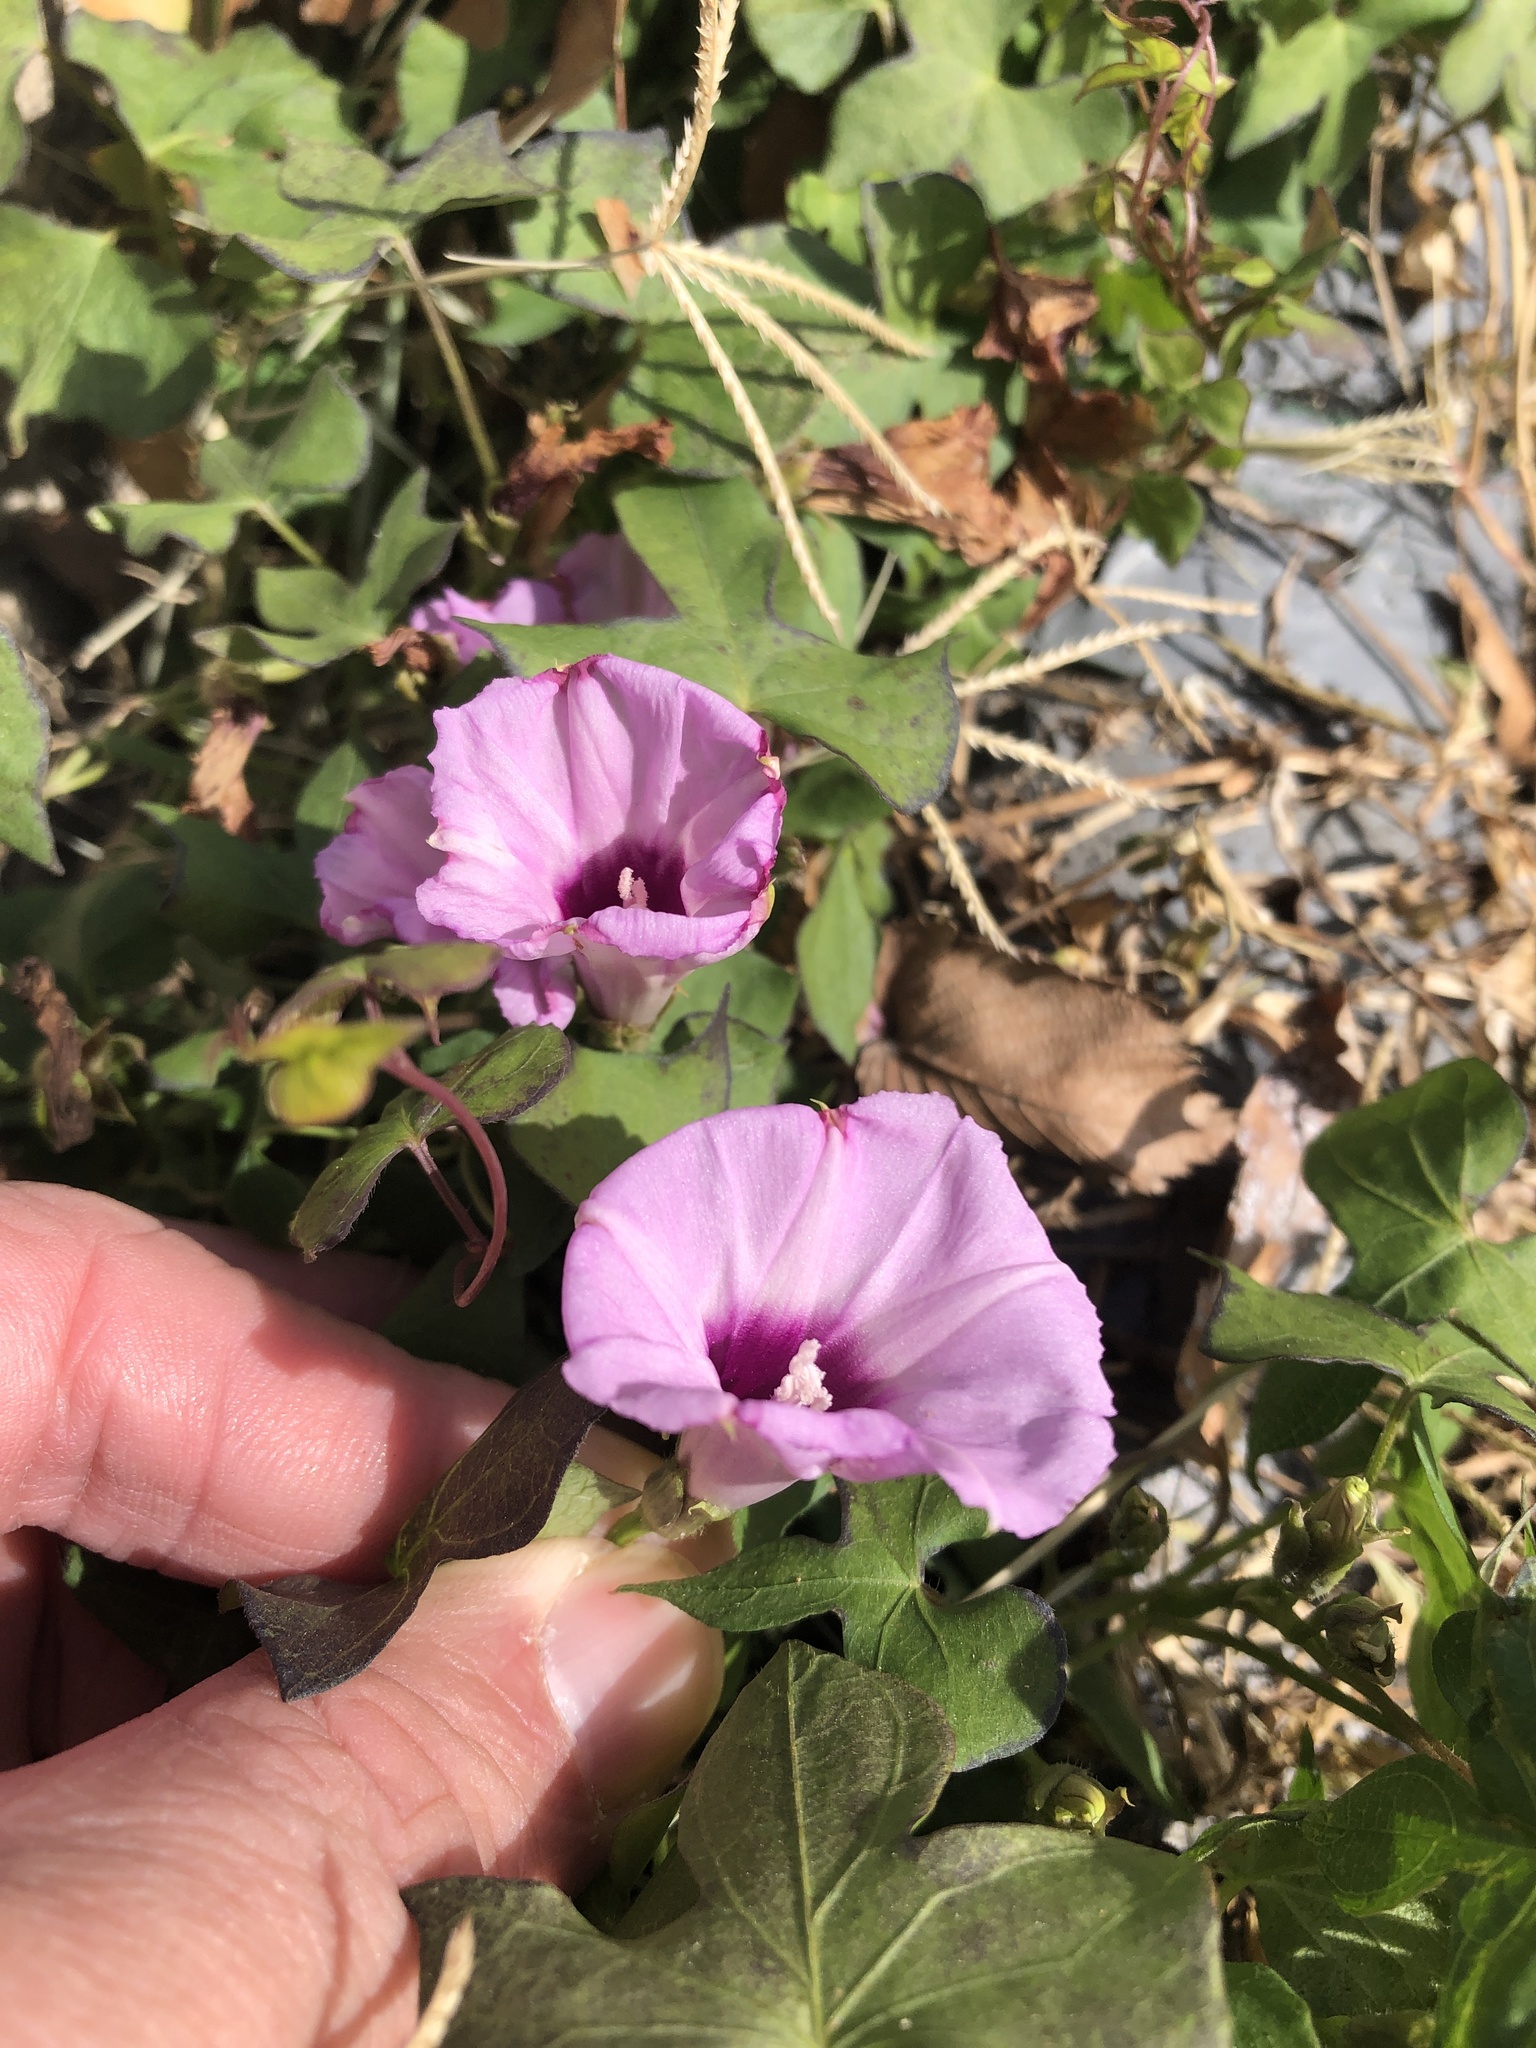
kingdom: Plantae
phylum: Tracheophyta
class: Magnoliopsida
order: Solanales
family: Convolvulaceae
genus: Ipomoea
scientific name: Ipomoea cordatotriloba
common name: Cotton morning glory
